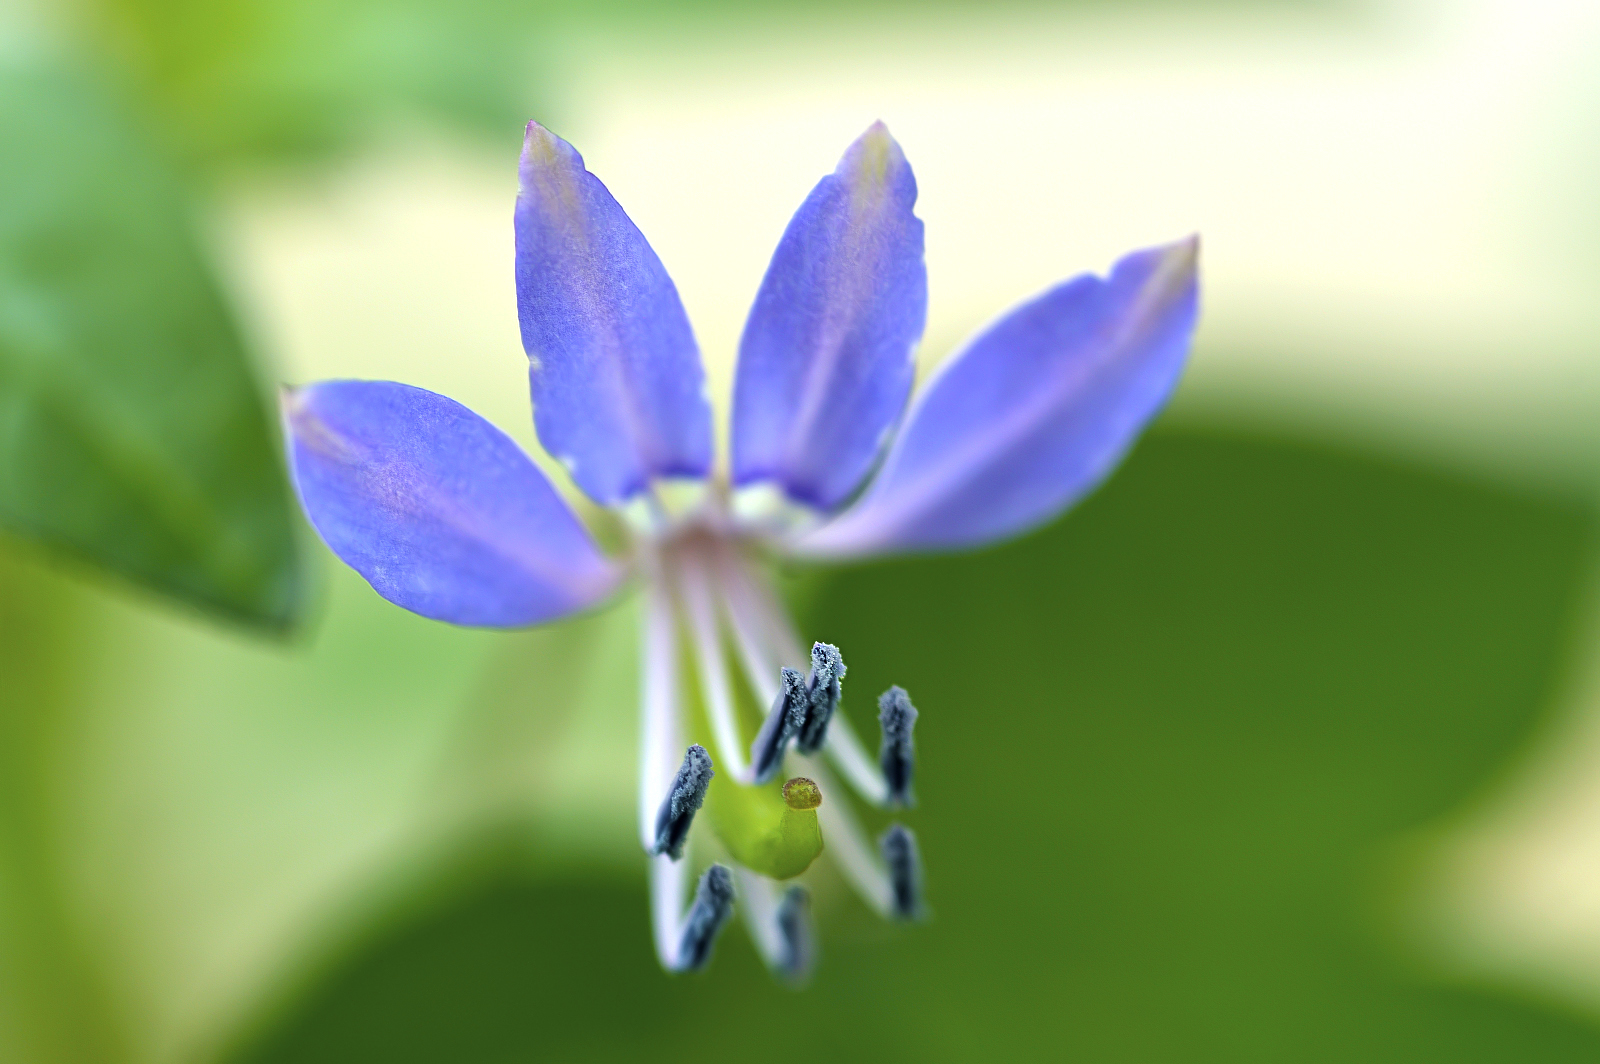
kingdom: Plantae
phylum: Tracheophyta
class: Magnoliopsida
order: Brassicales
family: Cleomaceae
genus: Sieruela
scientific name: Sieruela rutidosperma
